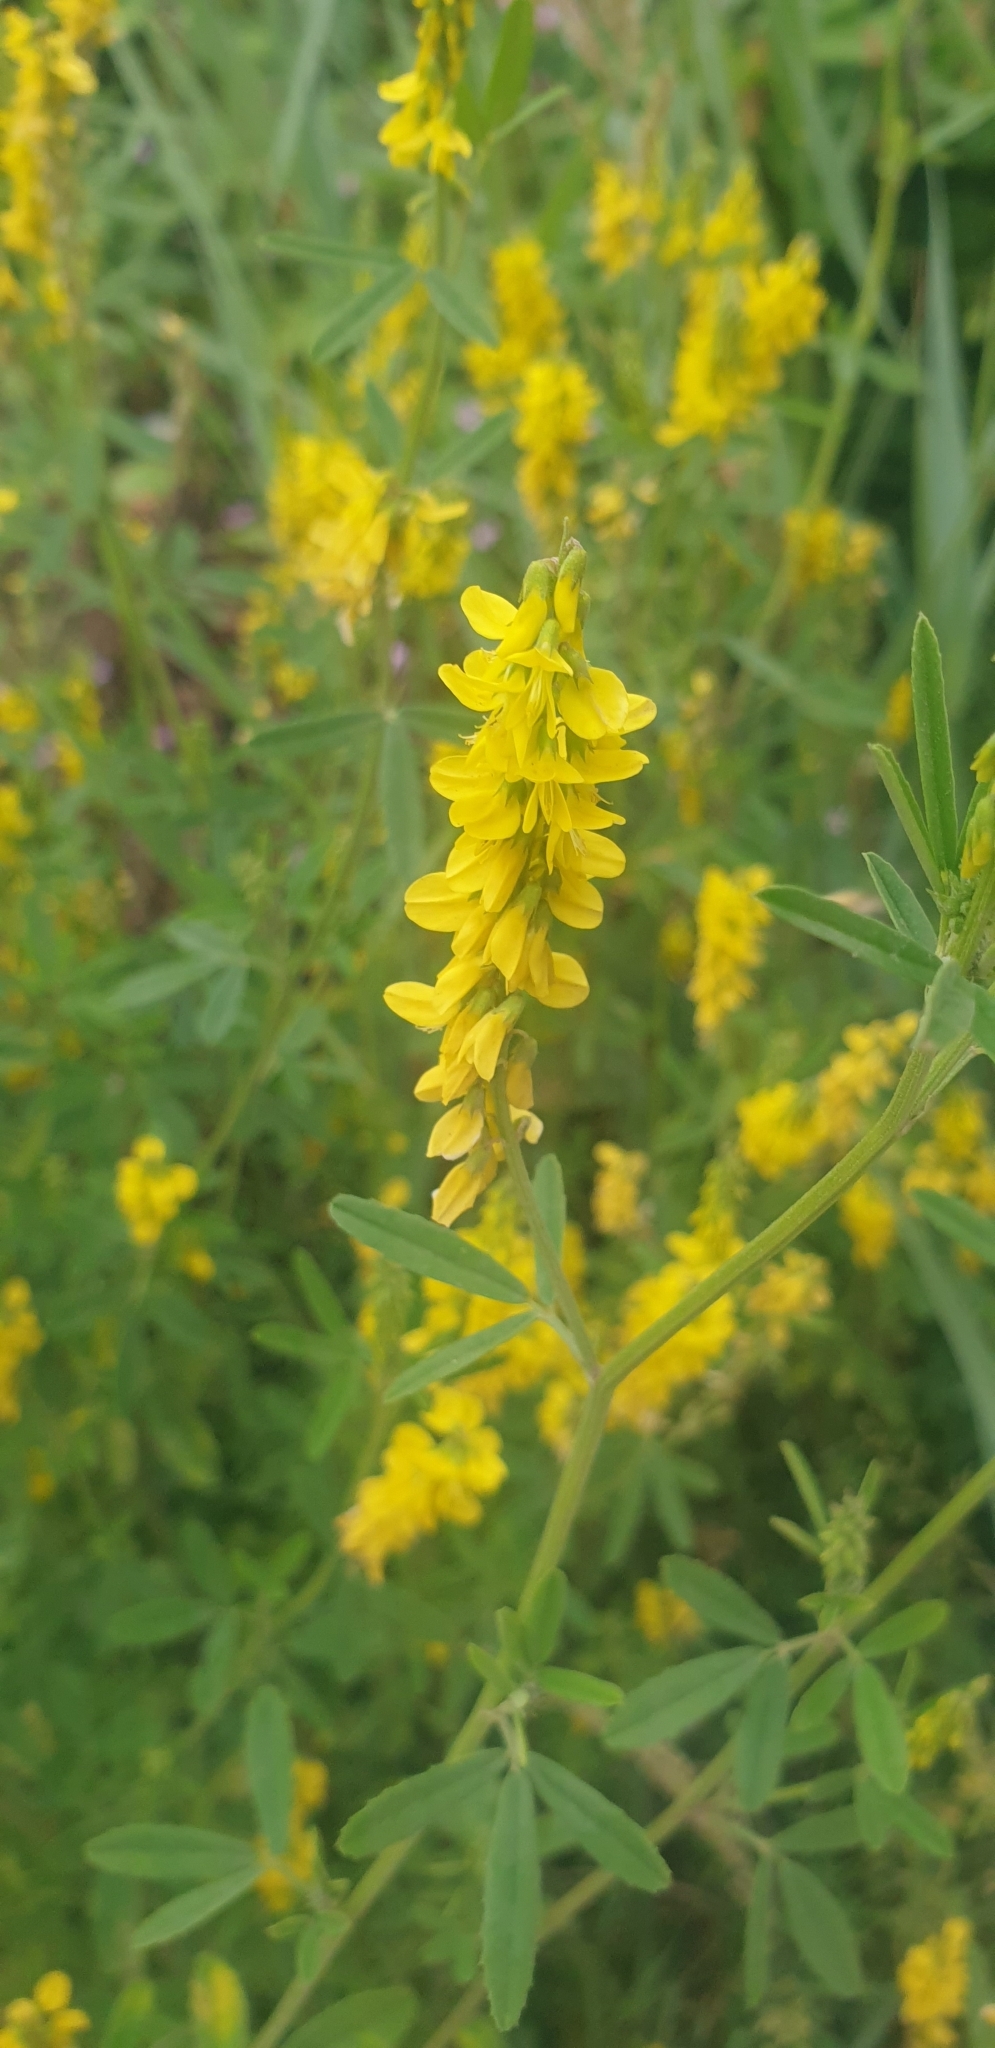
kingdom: Plantae
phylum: Tracheophyta
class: Magnoliopsida
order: Fabales
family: Fabaceae
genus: Melilotus
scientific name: Melilotus altissimus
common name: Tall melilot
